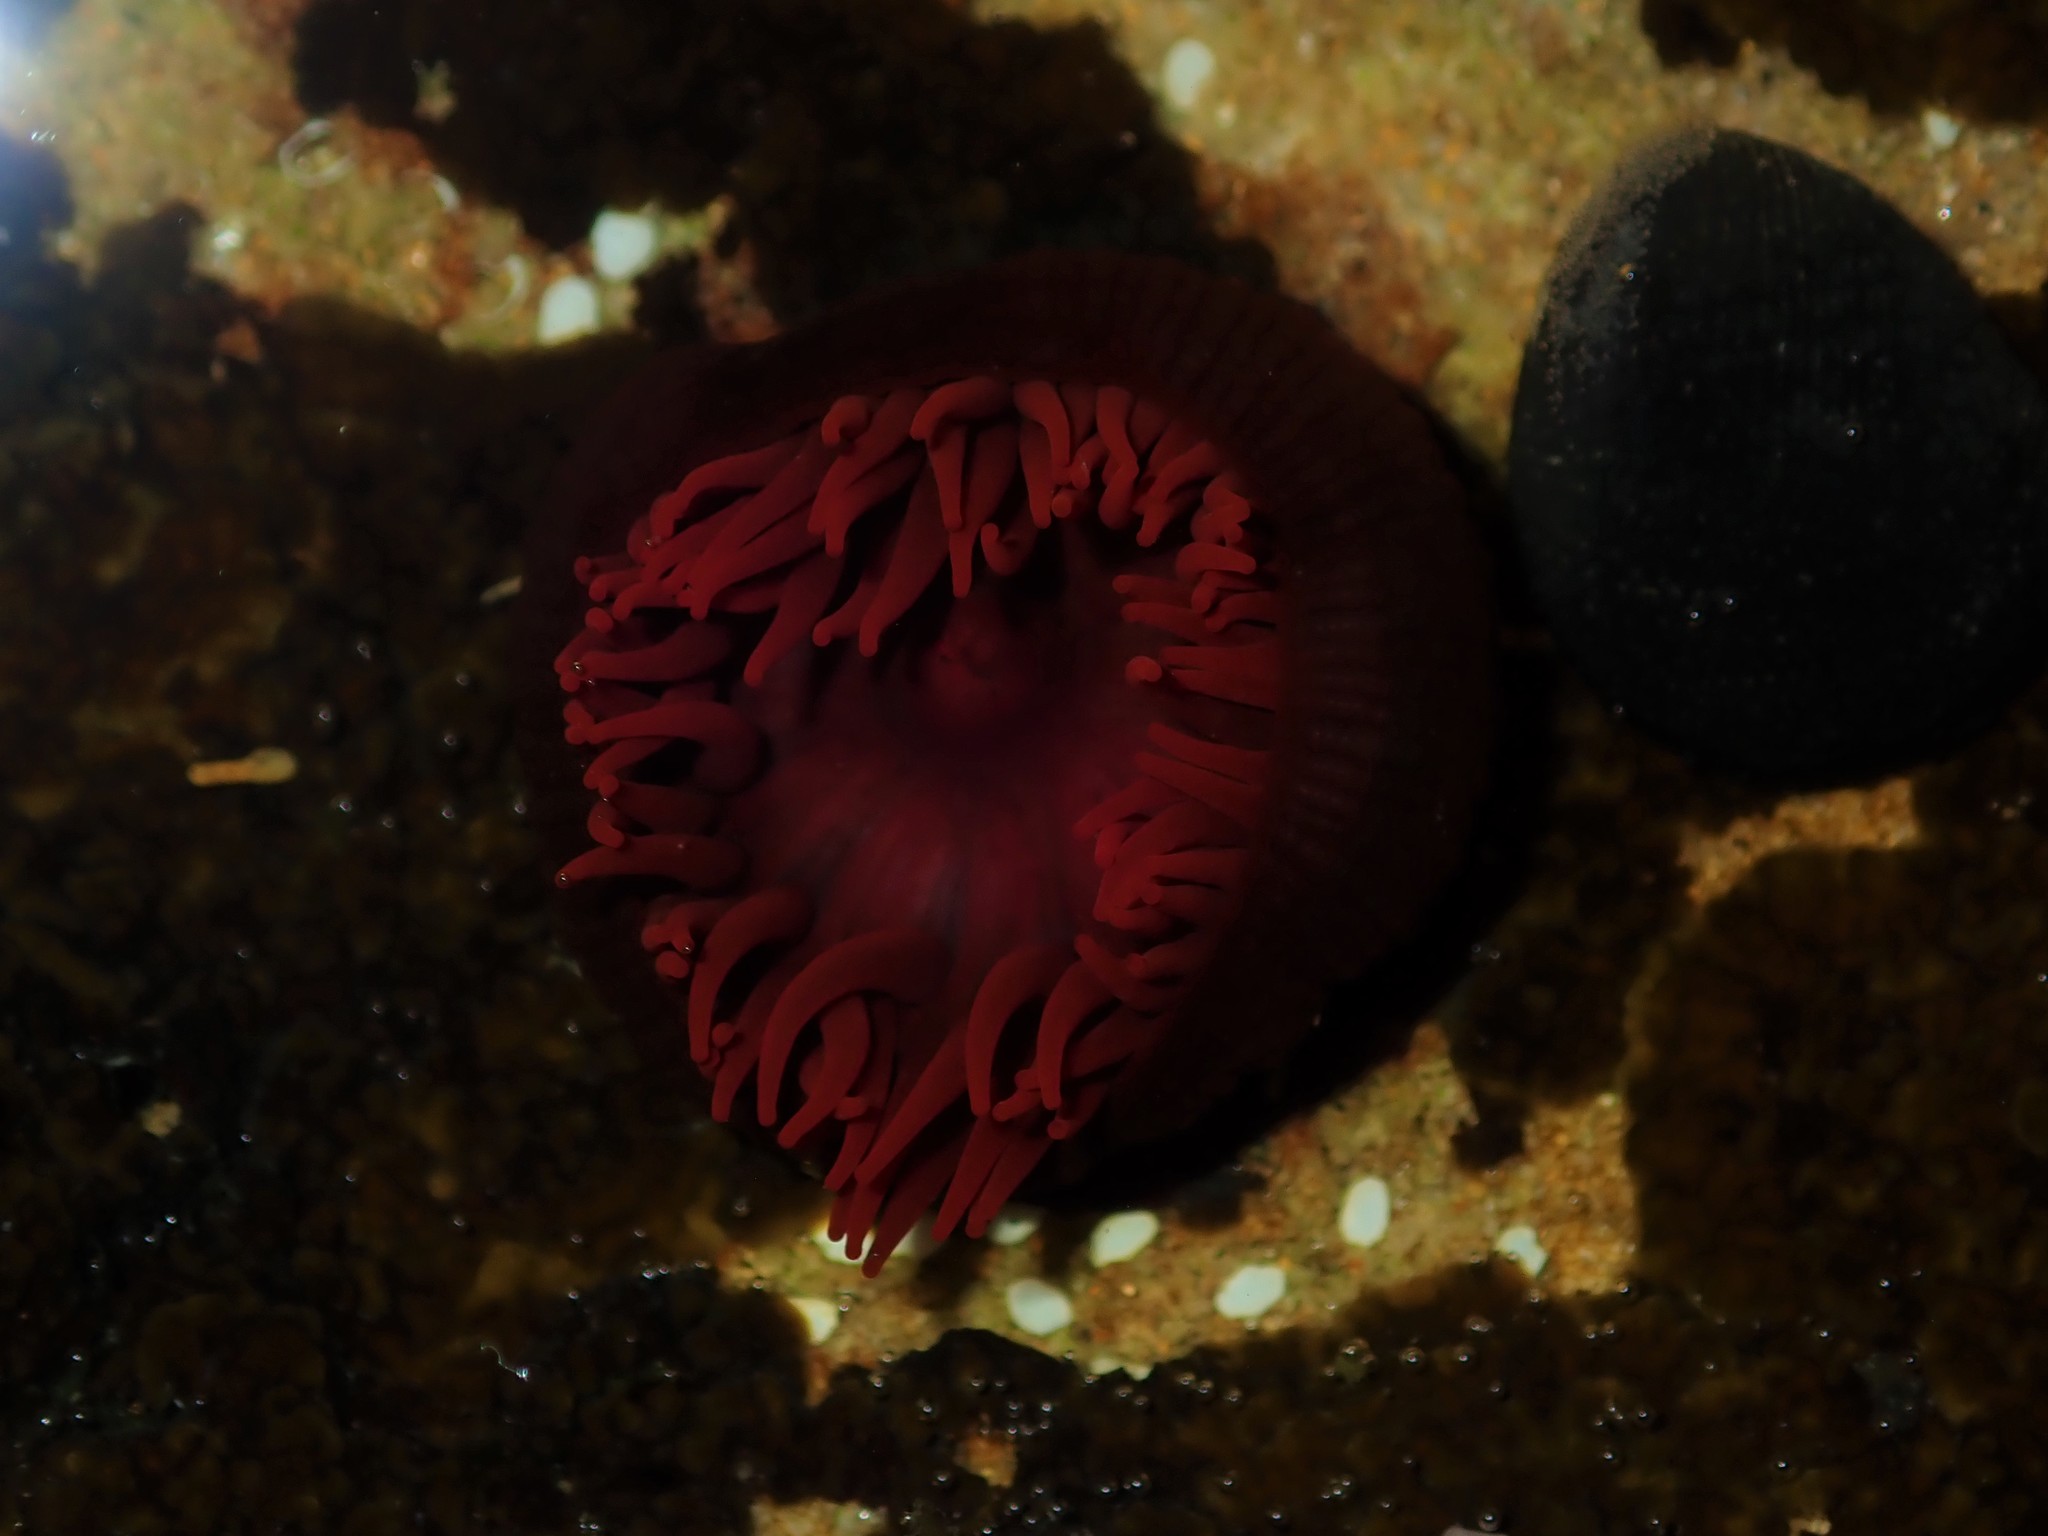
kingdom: Animalia
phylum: Cnidaria
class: Anthozoa
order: Actiniaria
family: Actiniidae
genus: Actinia
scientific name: Actinia tenebrosa
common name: Waratah anemone
